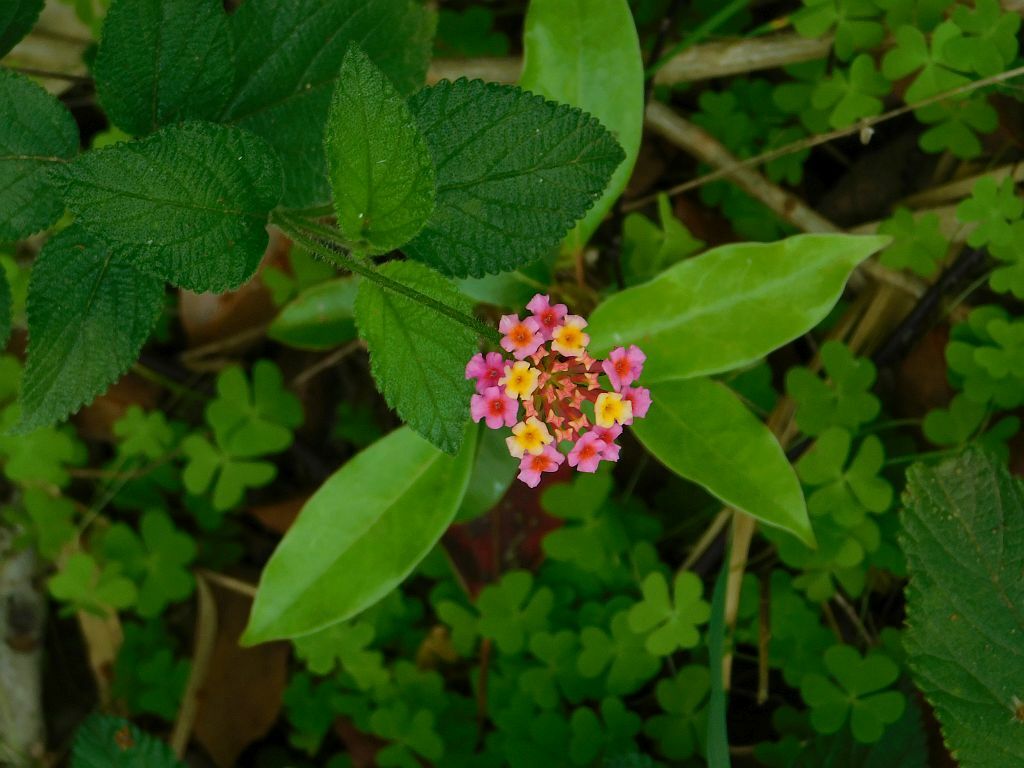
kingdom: Plantae
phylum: Tracheophyta
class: Magnoliopsida
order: Lamiales
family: Verbenaceae
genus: Lantana
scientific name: Lantana camara
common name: Lantana
